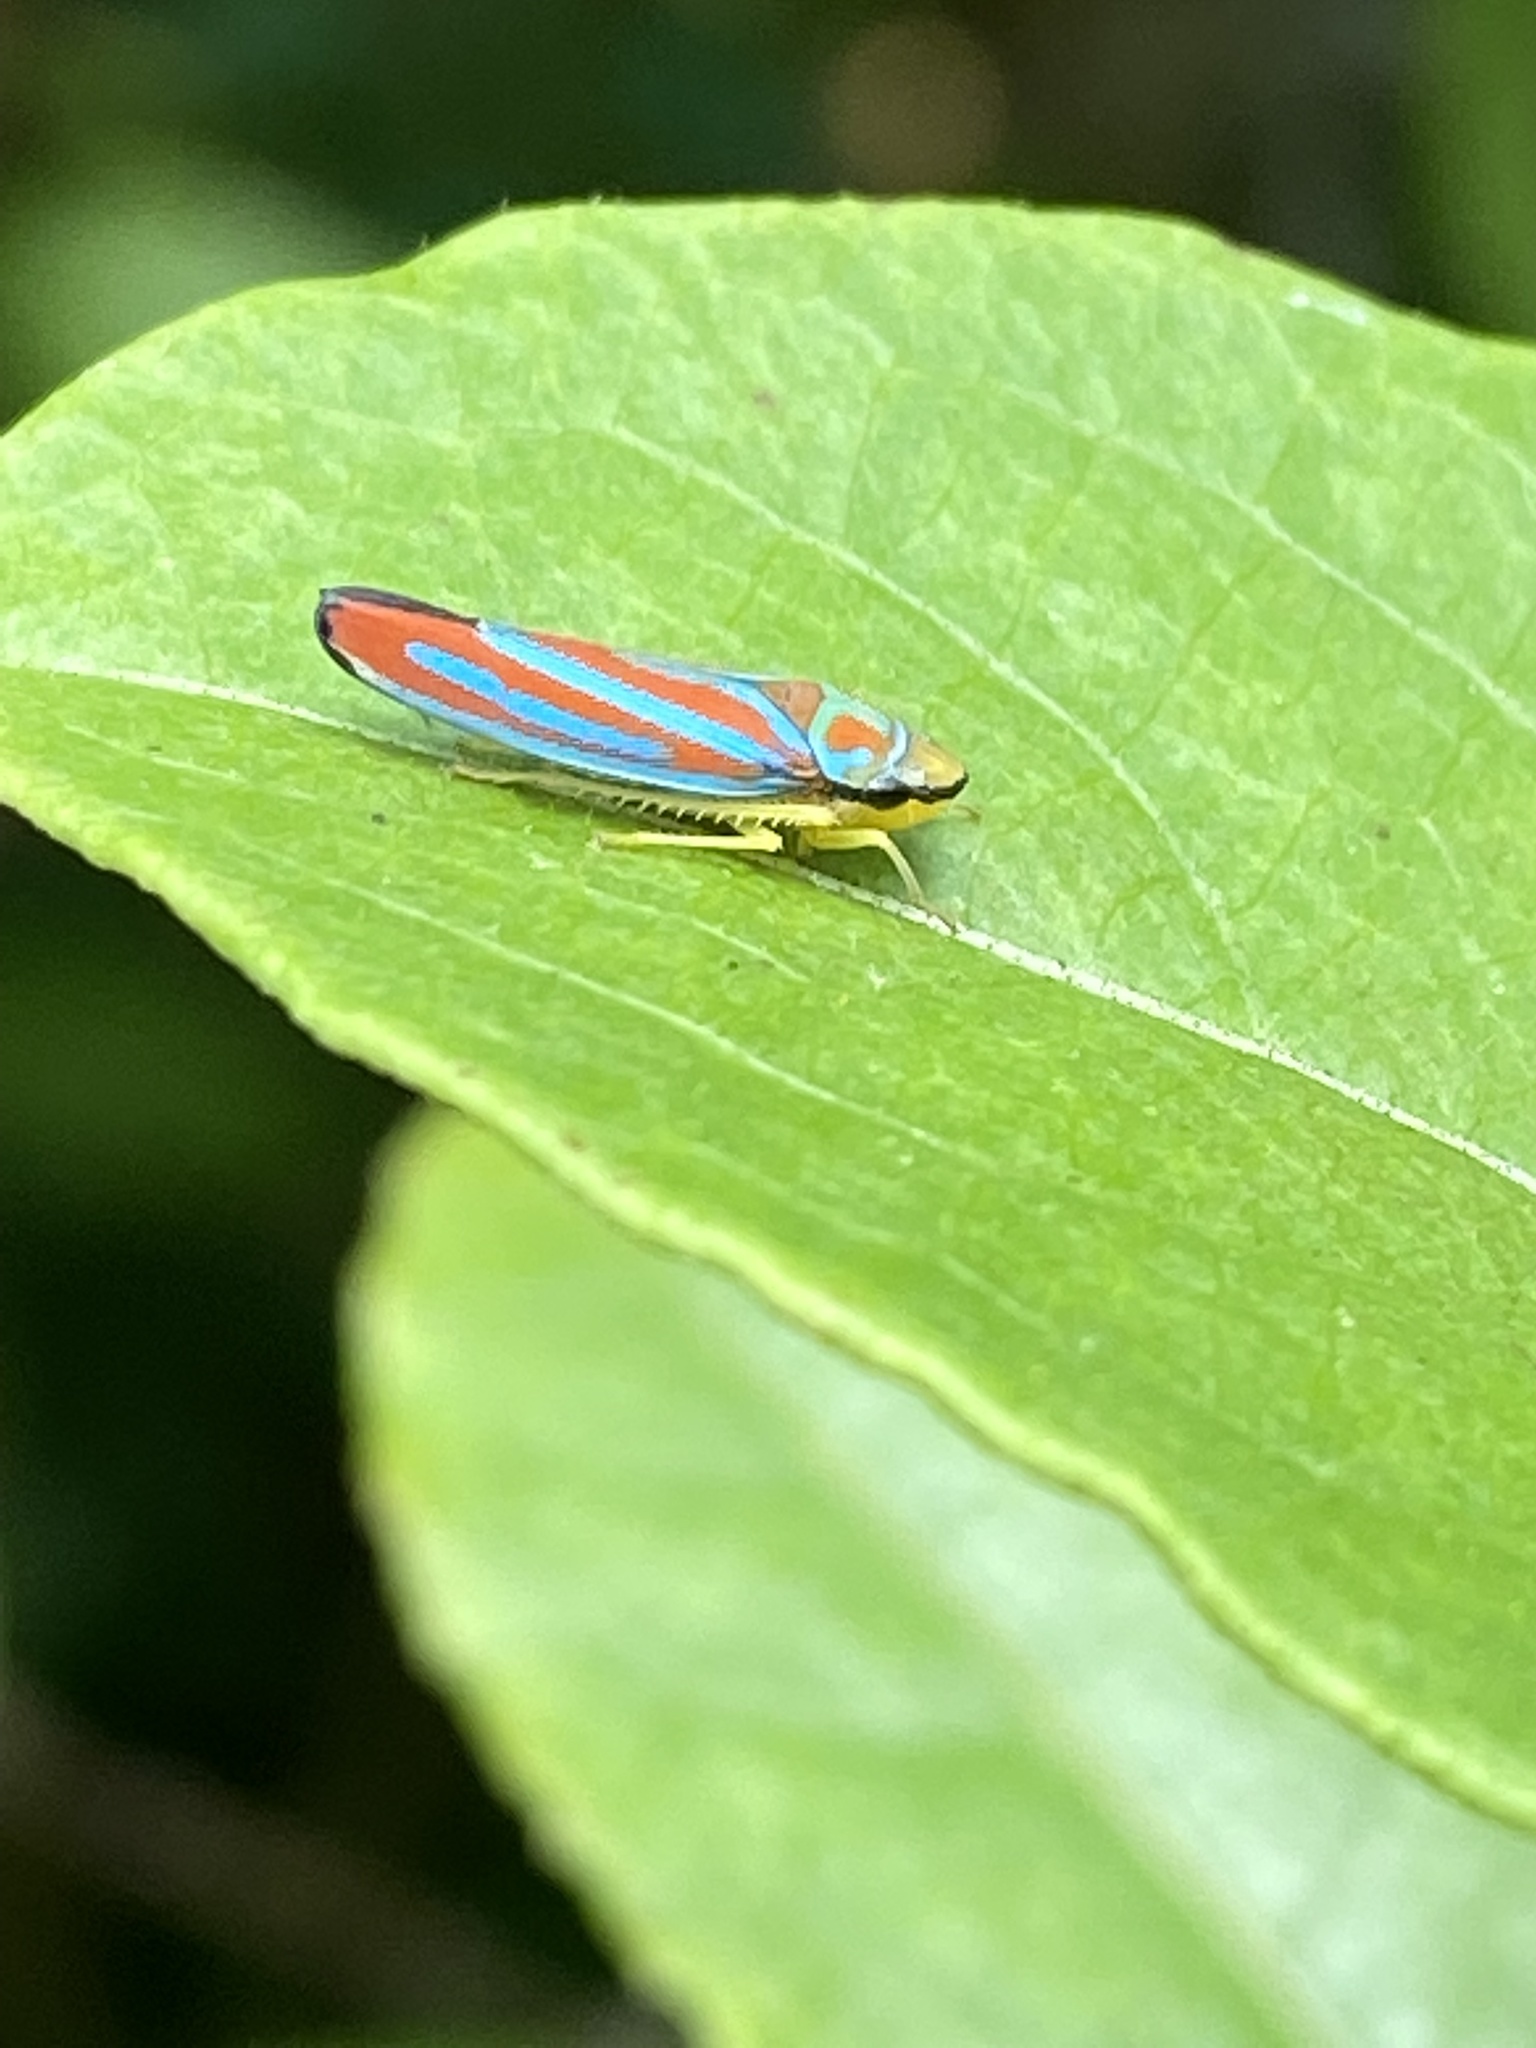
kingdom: Animalia
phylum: Arthropoda
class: Insecta
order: Hemiptera
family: Cicadellidae
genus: Graphocephala
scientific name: Graphocephala coccinea
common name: Candy-striped leafhopper
